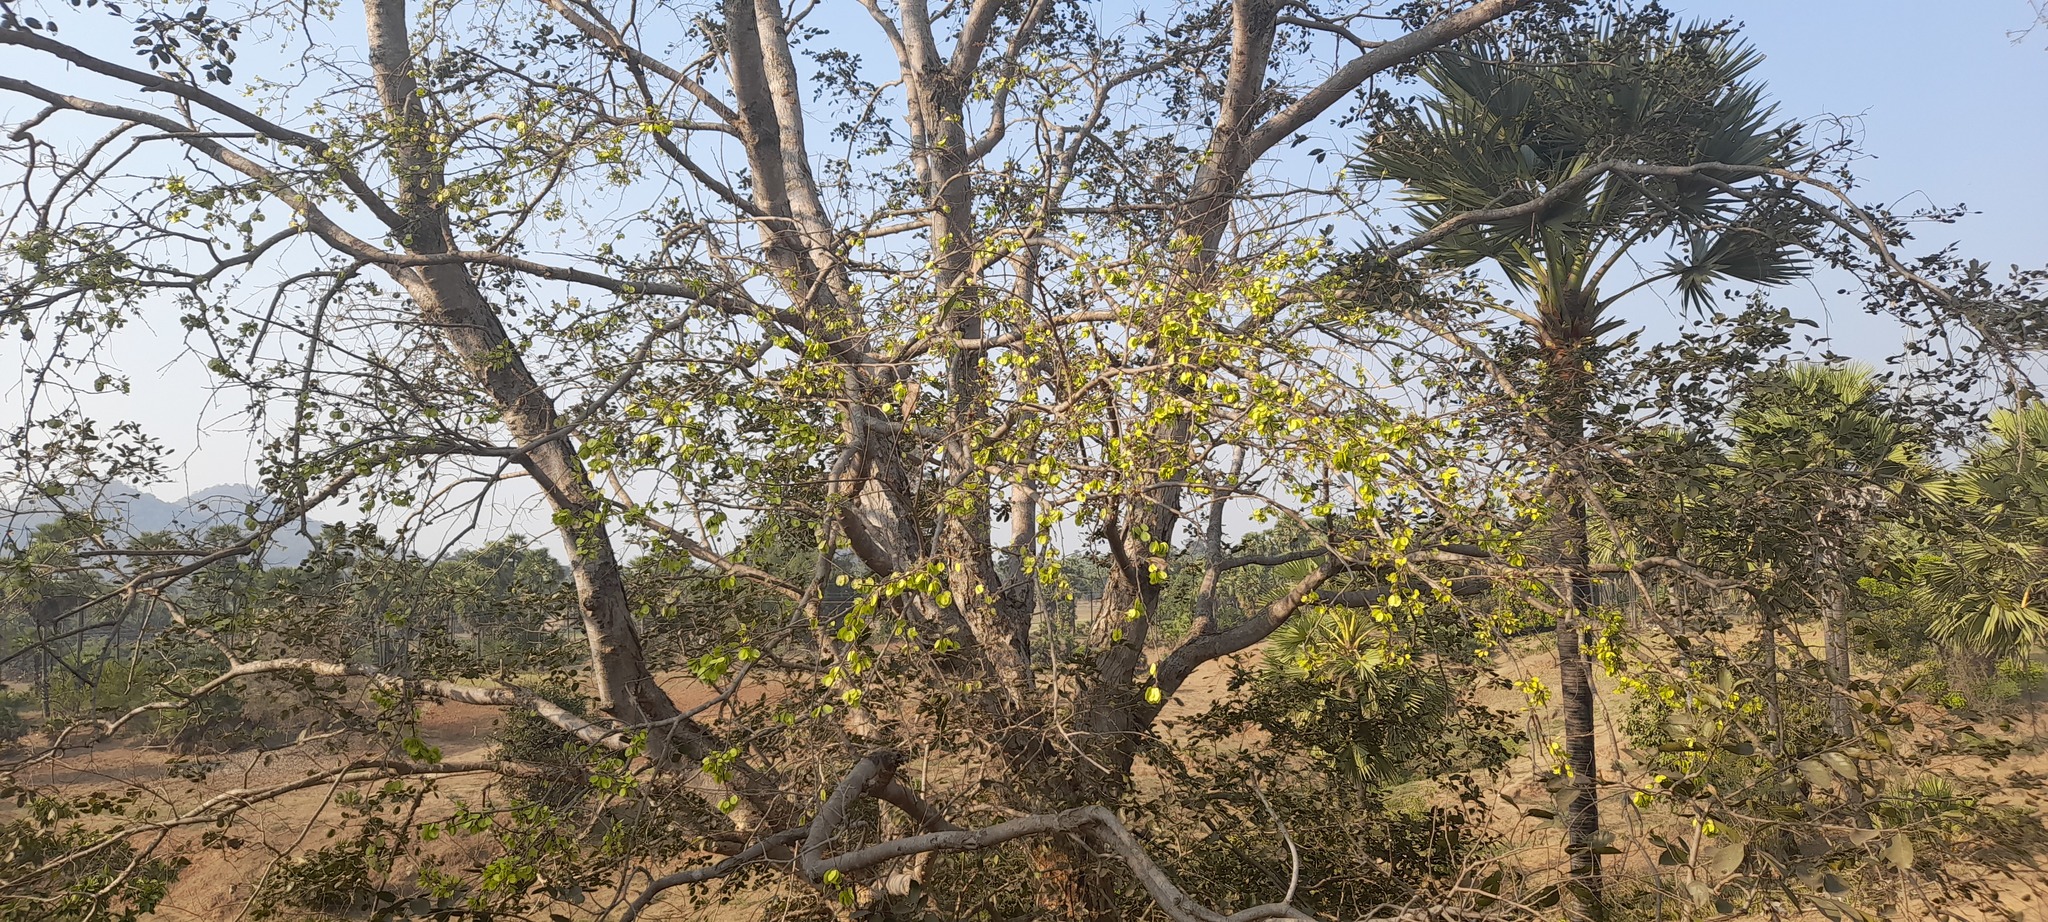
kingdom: Plantae
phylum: Tracheophyta
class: Magnoliopsida
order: Rosales
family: Ulmaceae
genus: Holoptelea
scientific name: Holoptelea integrifolia
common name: Indian-elm
